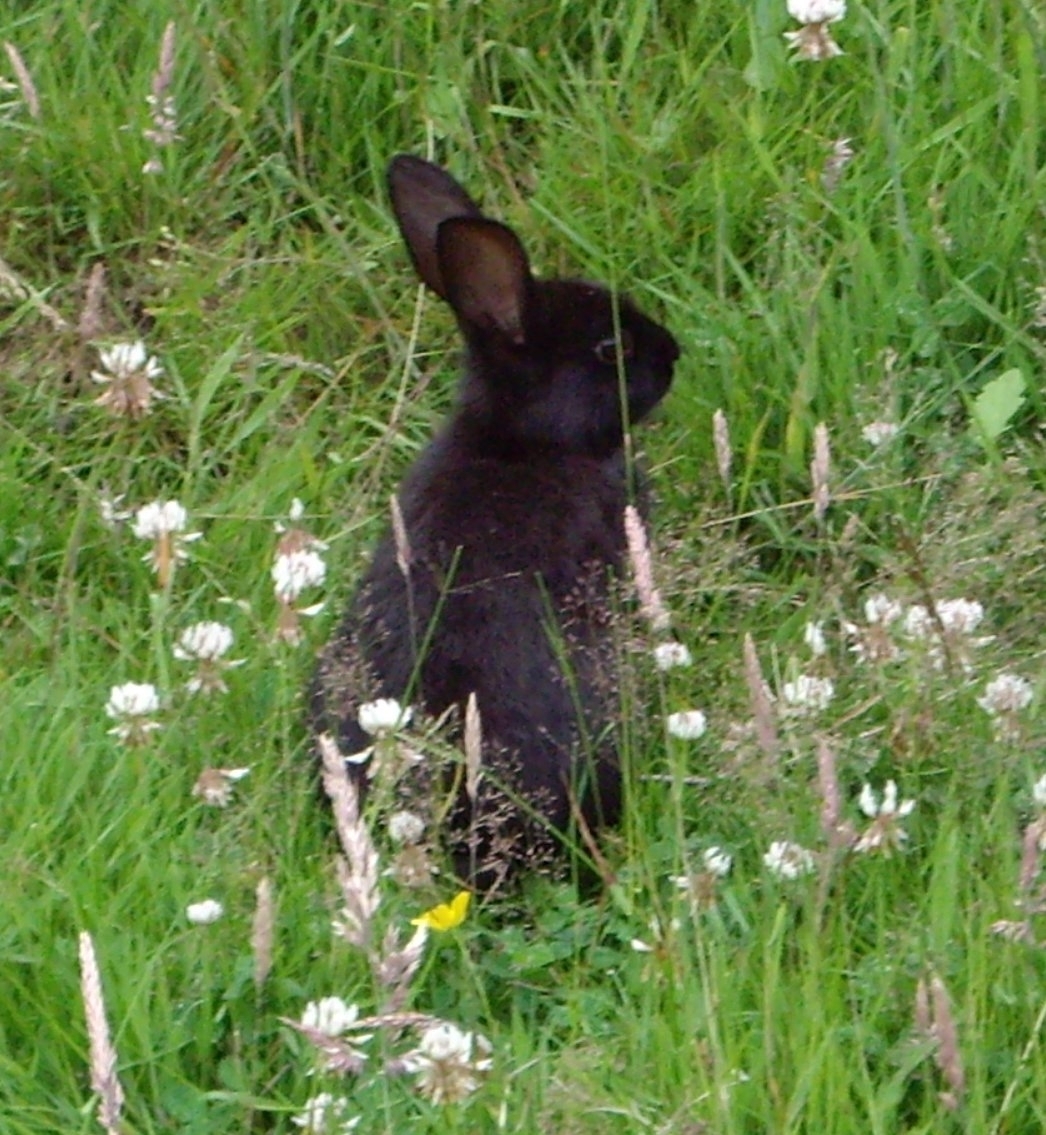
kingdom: Animalia
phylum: Chordata
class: Mammalia
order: Lagomorpha
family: Leporidae
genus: Oryctolagus
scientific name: Oryctolagus cuniculus
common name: European rabbit
